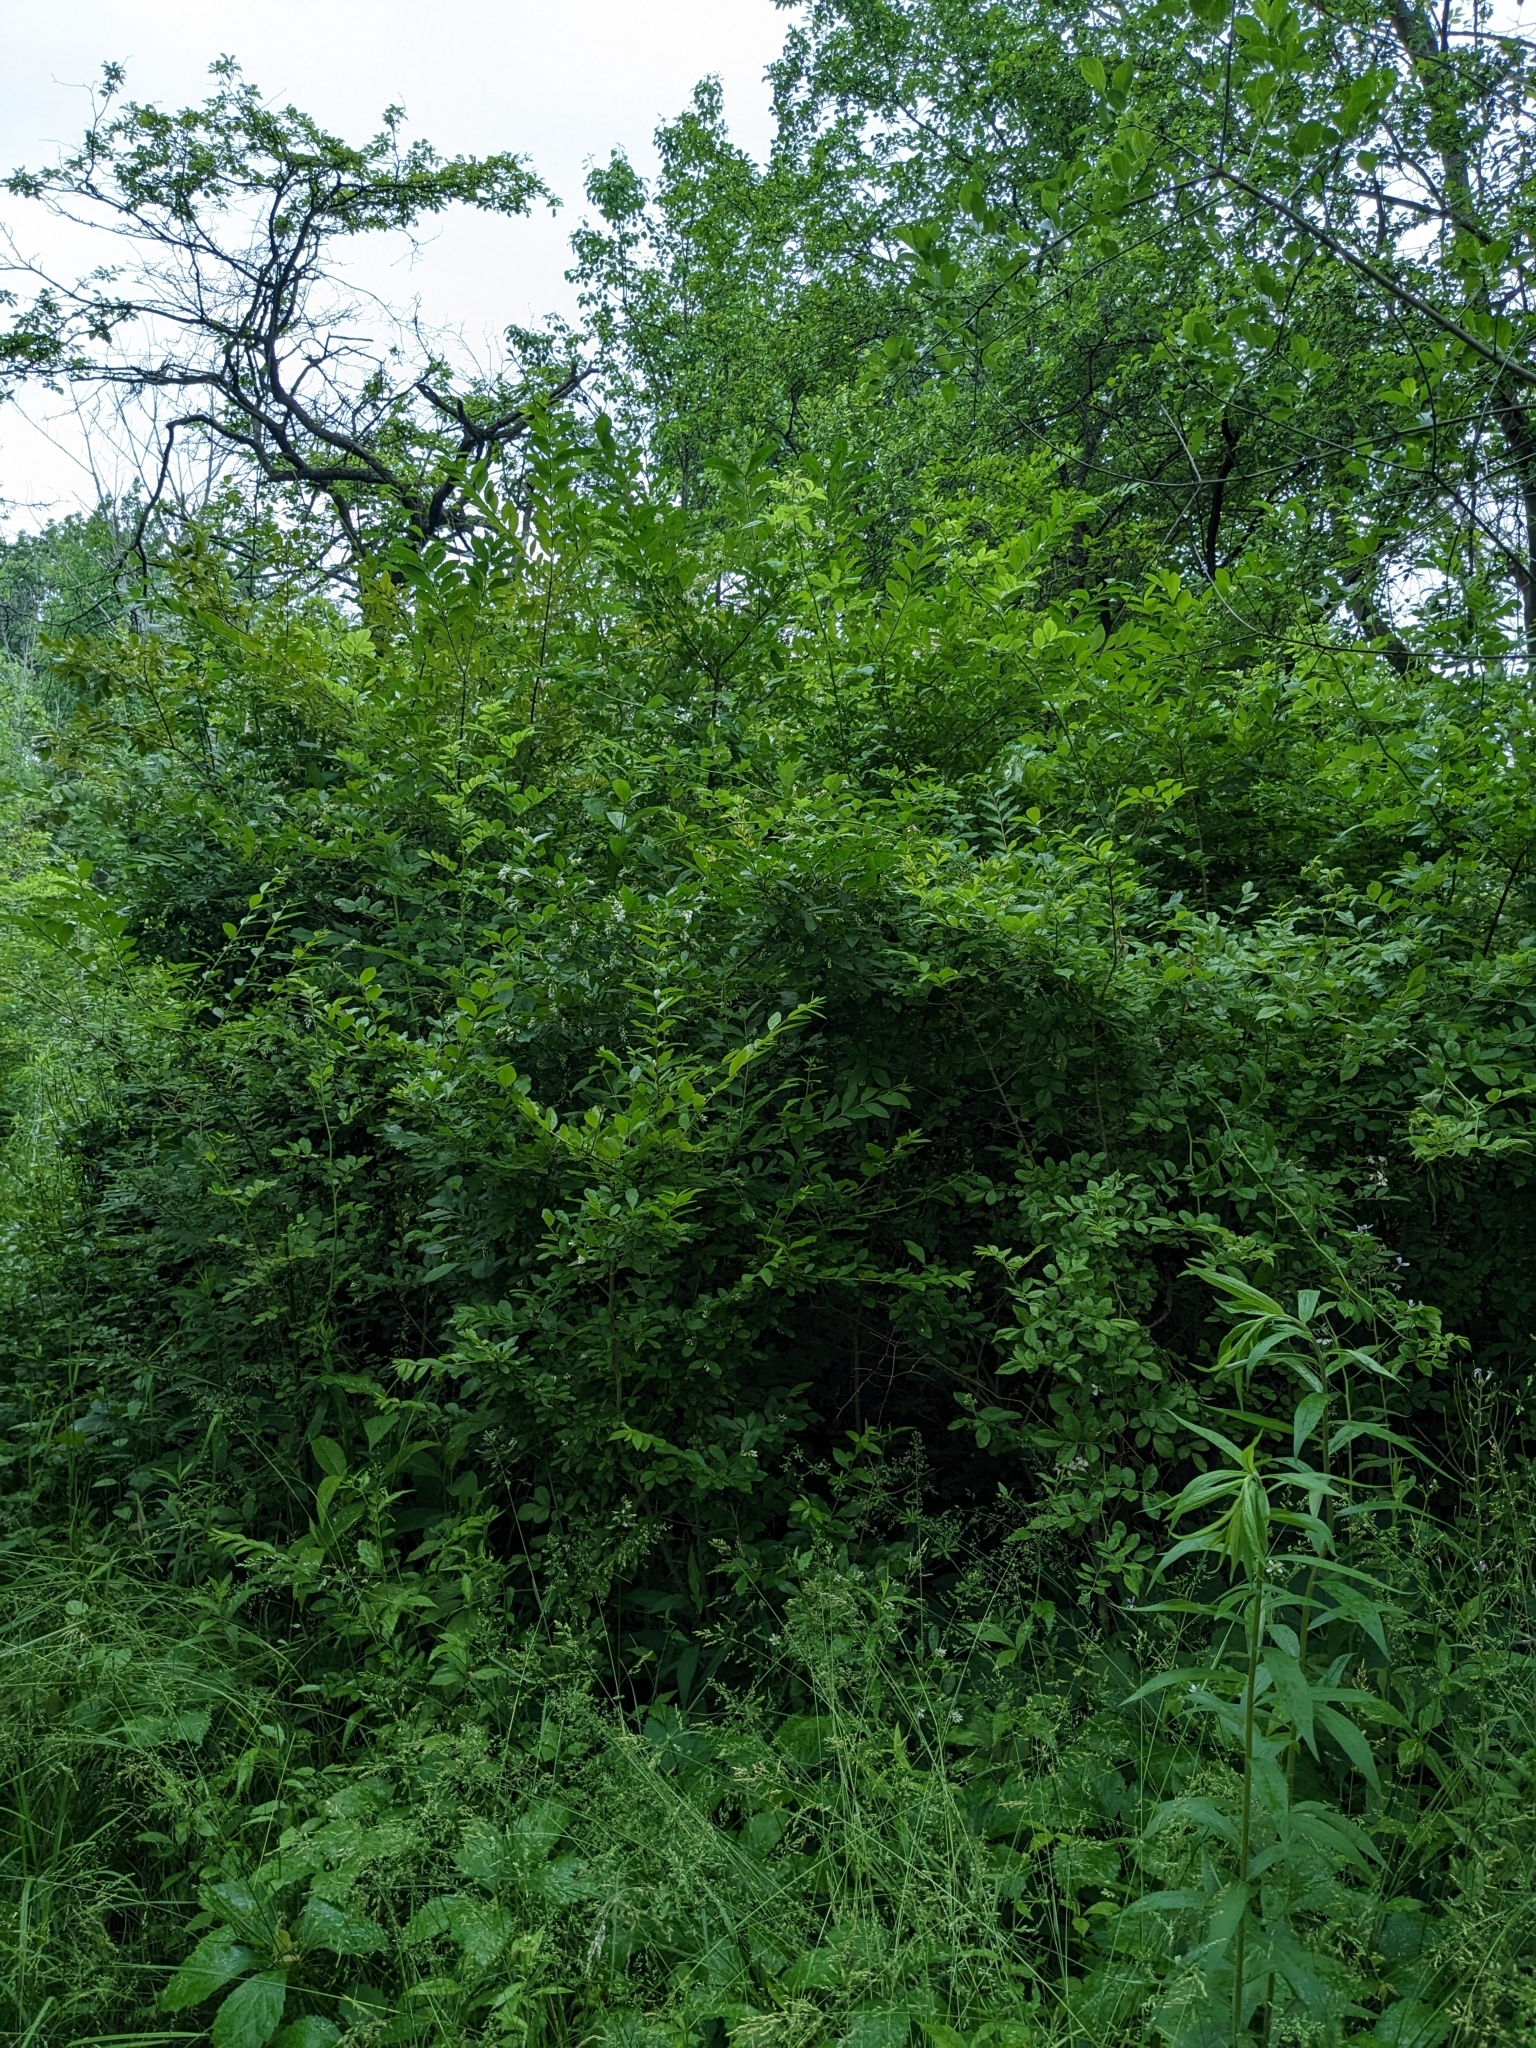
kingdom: Plantae
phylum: Tracheophyta
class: Magnoliopsida
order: Lamiales
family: Oleaceae
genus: Ligustrum
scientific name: Ligustrum obtusifolium
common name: Border privet
